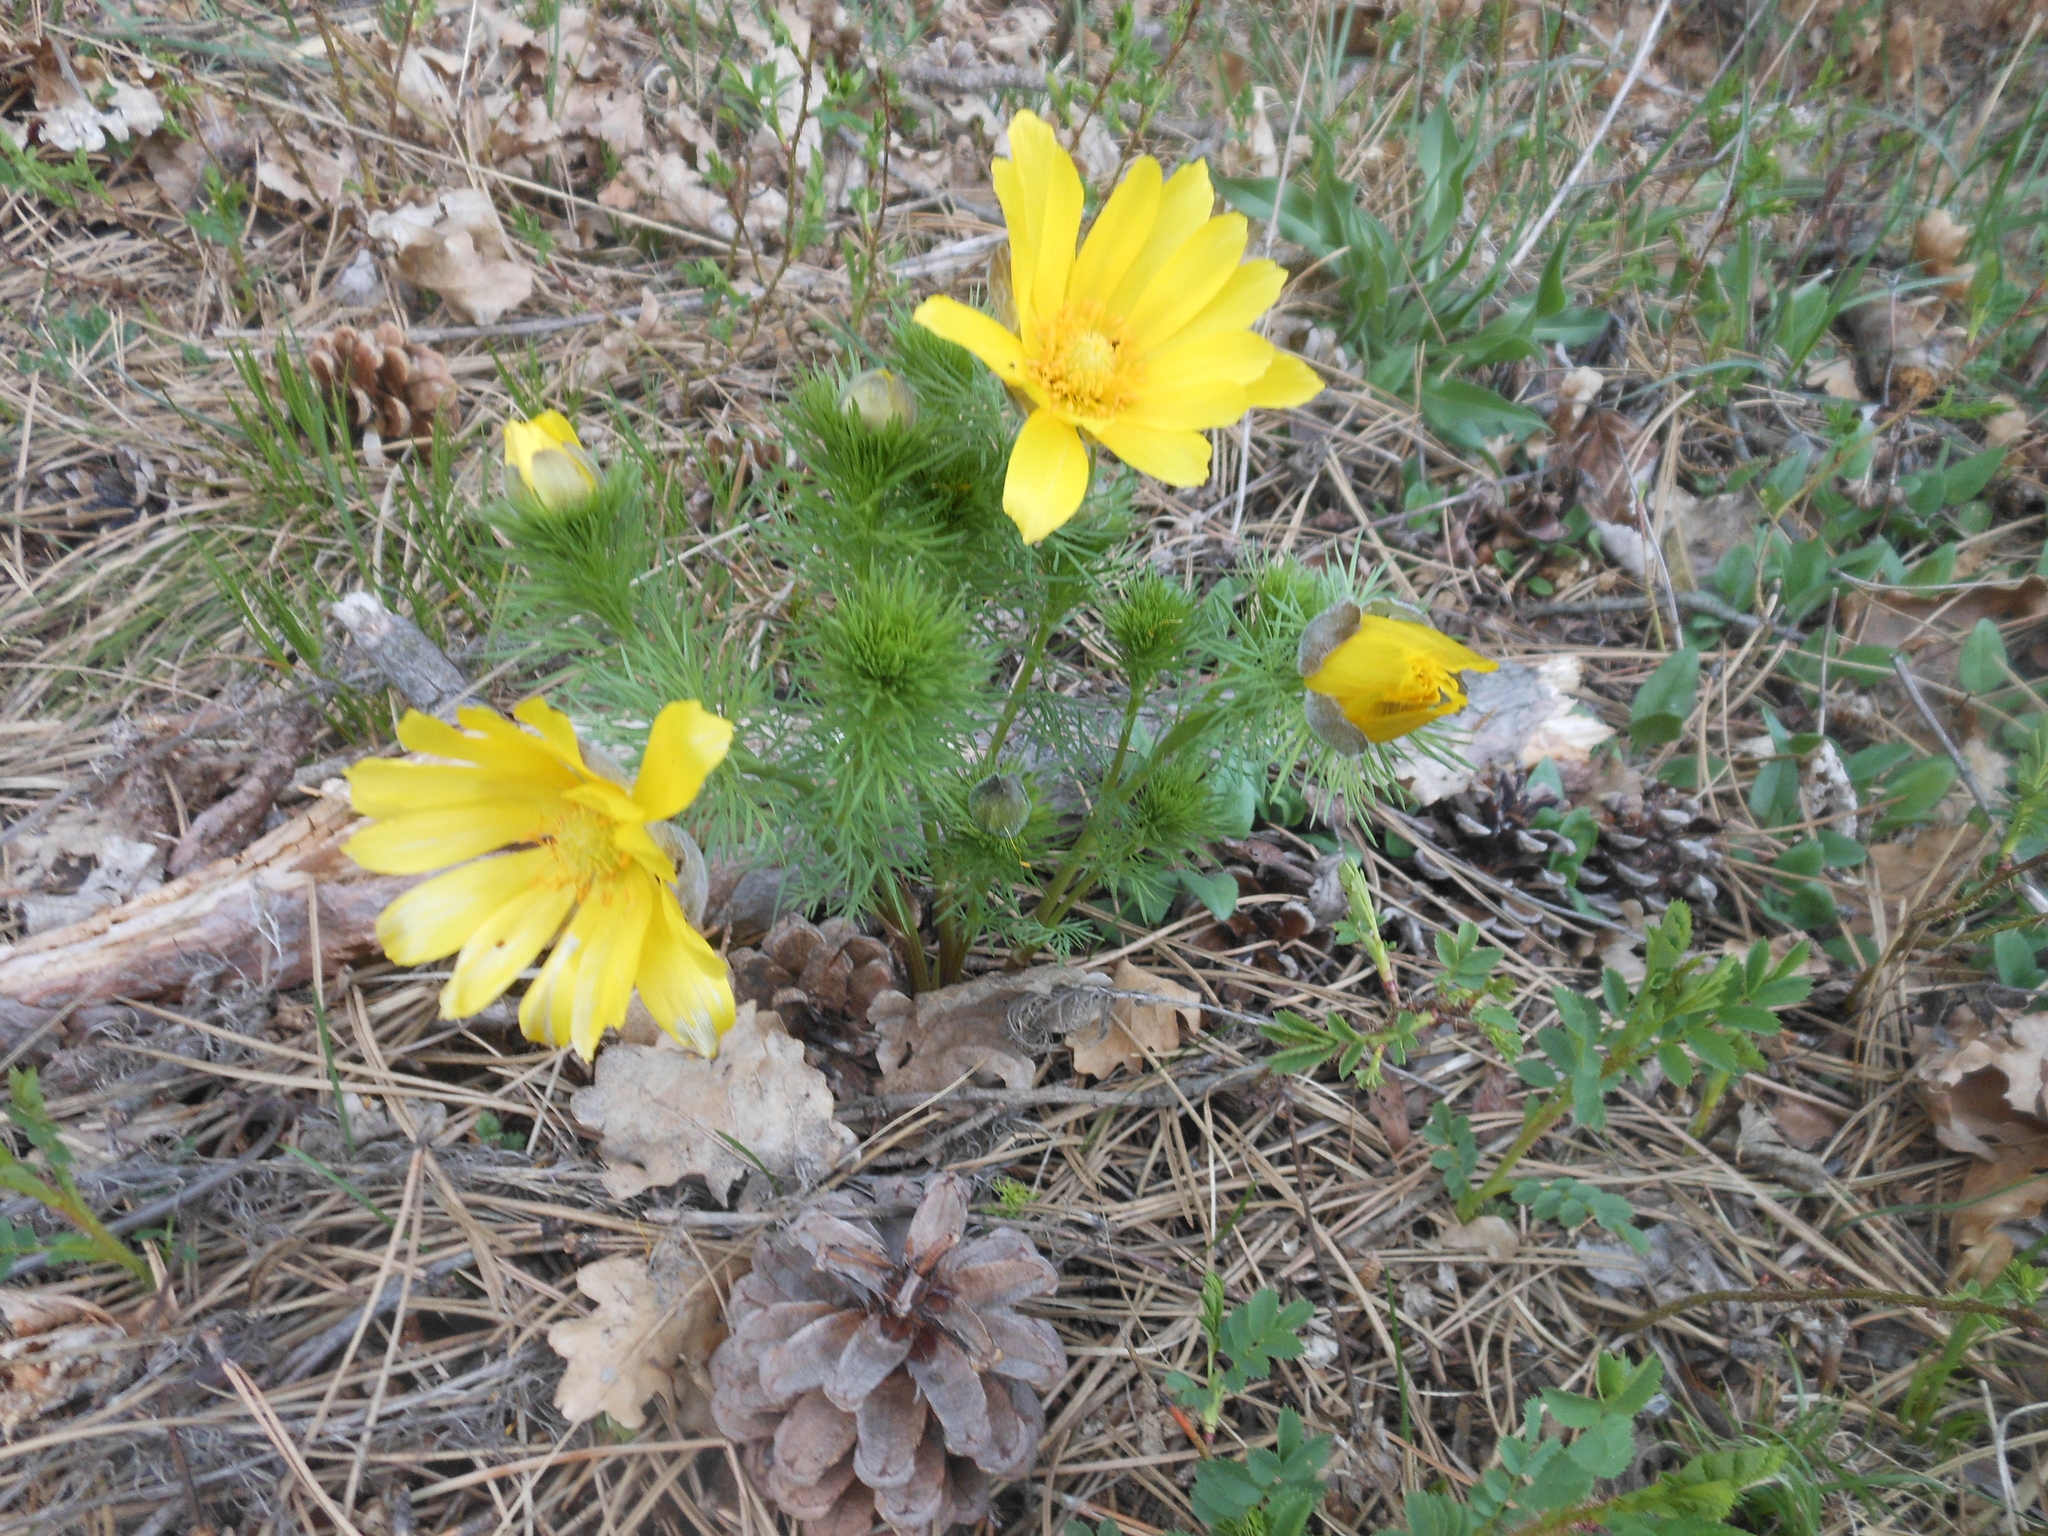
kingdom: Plantae
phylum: Tracheophyta
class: Magnoliopsida
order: Ranunculales
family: Ranunculaceae
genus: Adonis
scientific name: Adonis vernalis
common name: Yellow pheasants-eye
